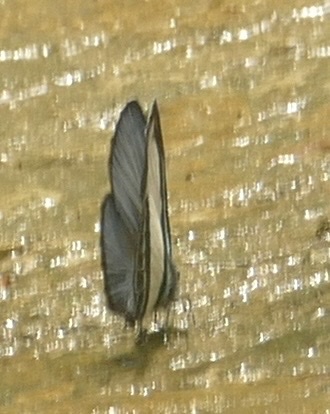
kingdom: Animalia
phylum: Arthropoda
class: Insecta
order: Lepidoptera
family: Lycaenidae
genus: Psychonotis
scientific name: Psychonotis caelius
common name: Small green banded blue
